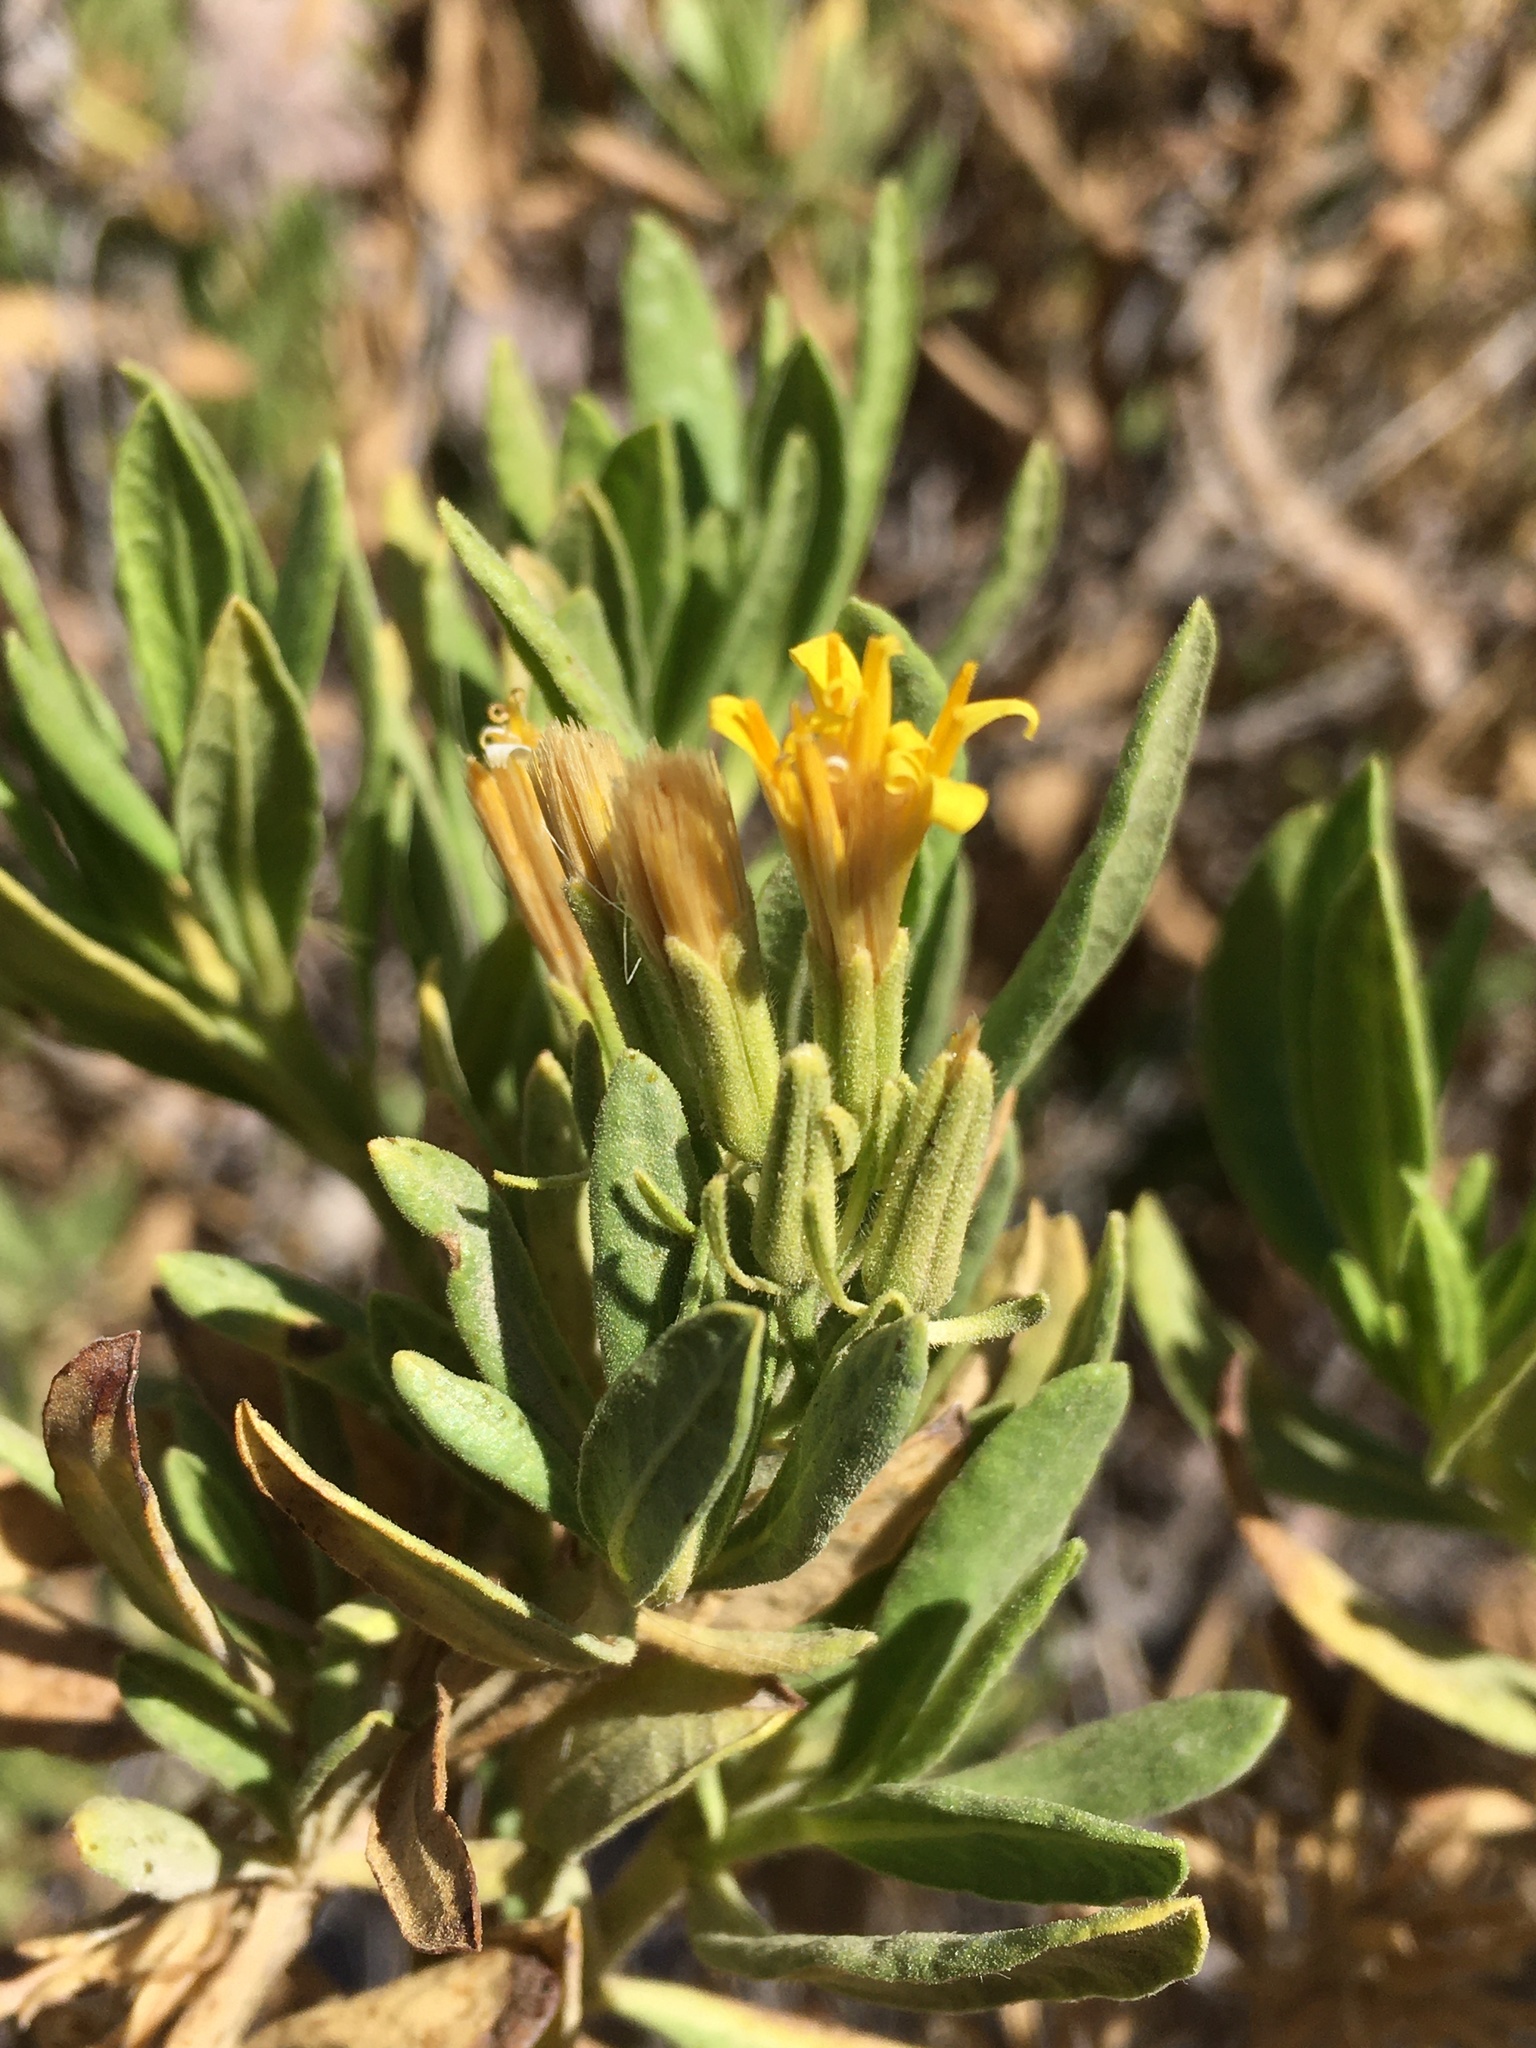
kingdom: Plantae
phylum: Tracheophyta
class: Magnoliopsida
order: Asterales
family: Asteraceae
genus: Trixis
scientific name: Trixis cacalioides
